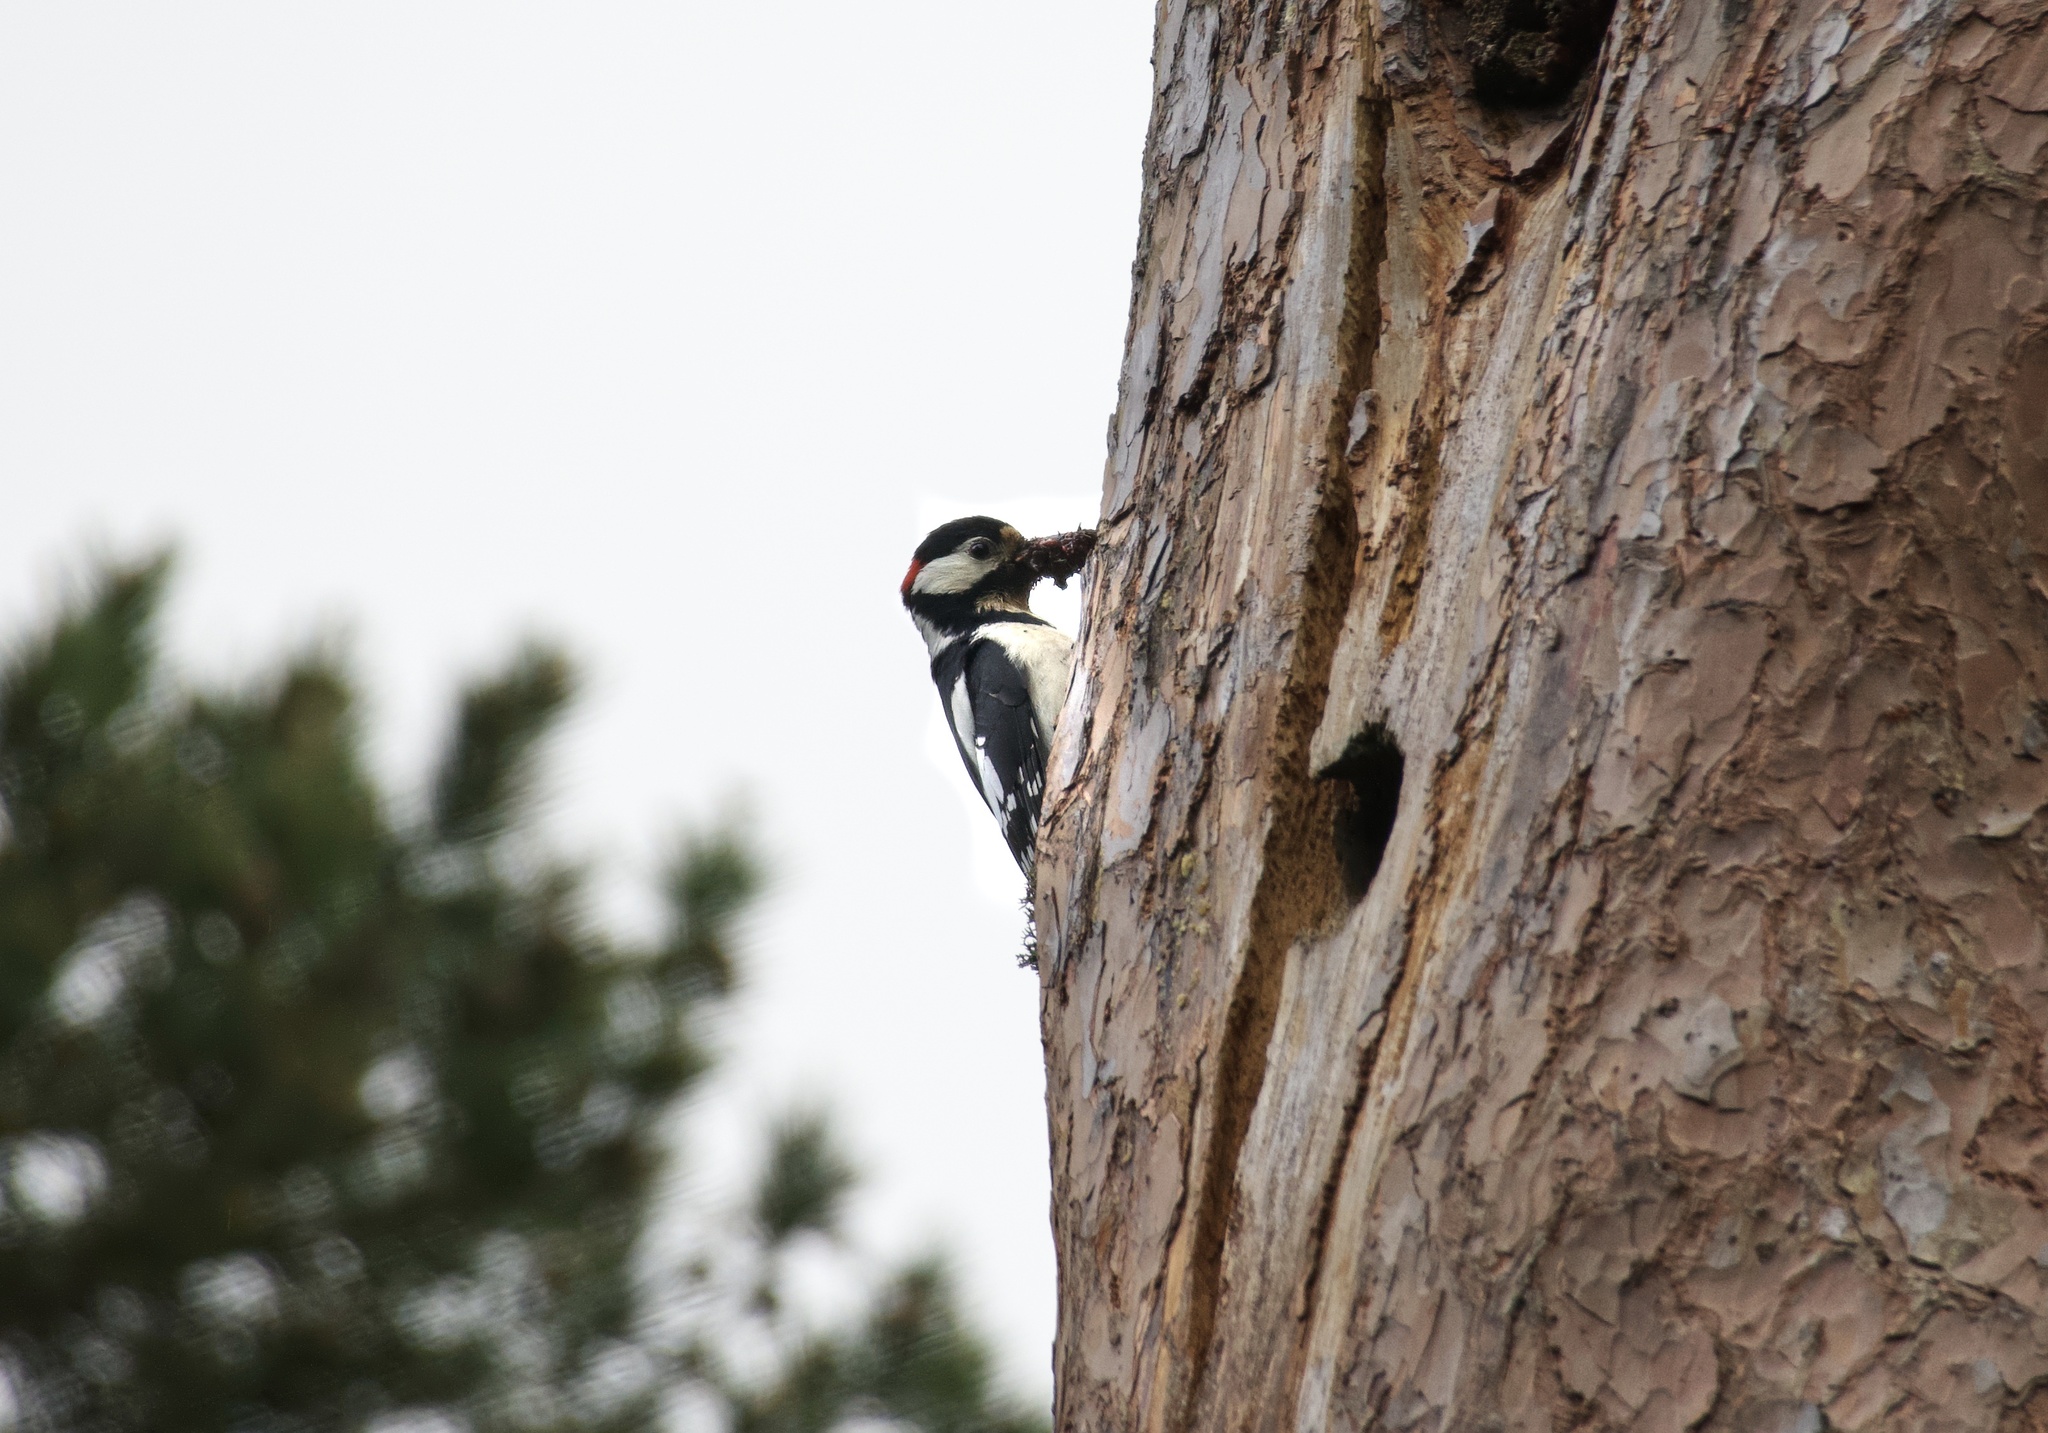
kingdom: Animalia
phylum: Chordata
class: Aves
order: Piciformes
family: Picidae
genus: Dendrocopos
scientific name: Dendrocopos major
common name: Great spotted woodpecker
